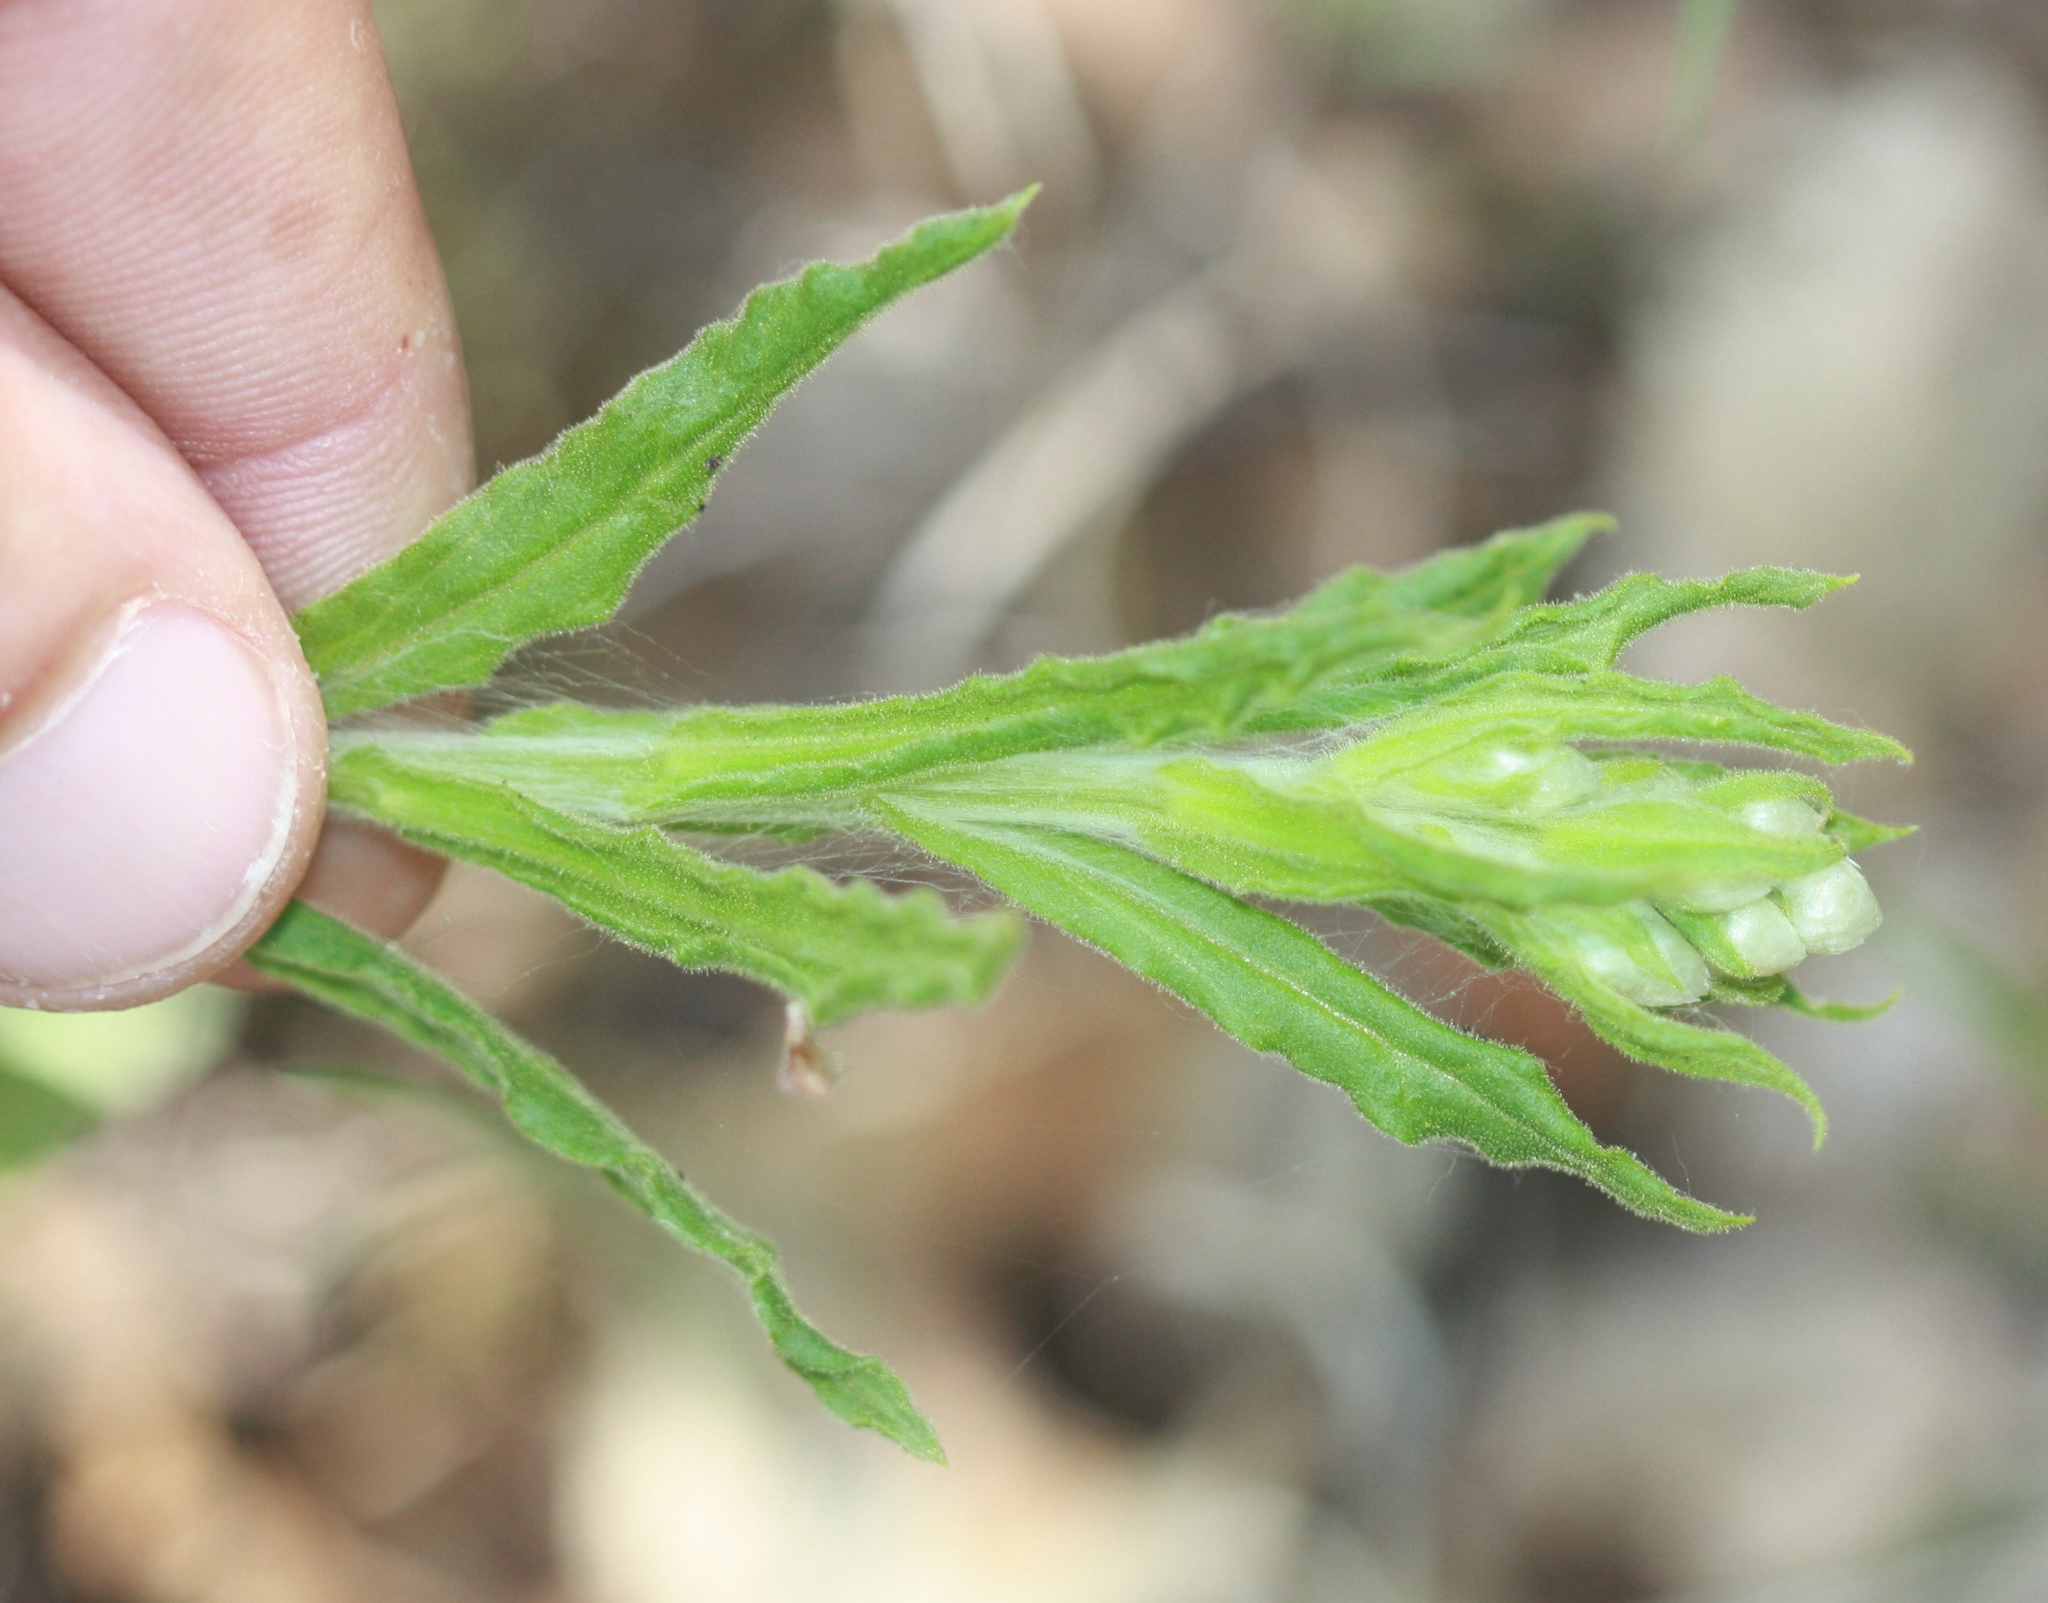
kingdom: Plantae
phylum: Tracheophyta
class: Magnoliopsida
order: Asterales
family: Asteraceae
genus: Pseudognaphalium
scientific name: Pseudognaphalium californicum
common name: California rabbit-tobacco
